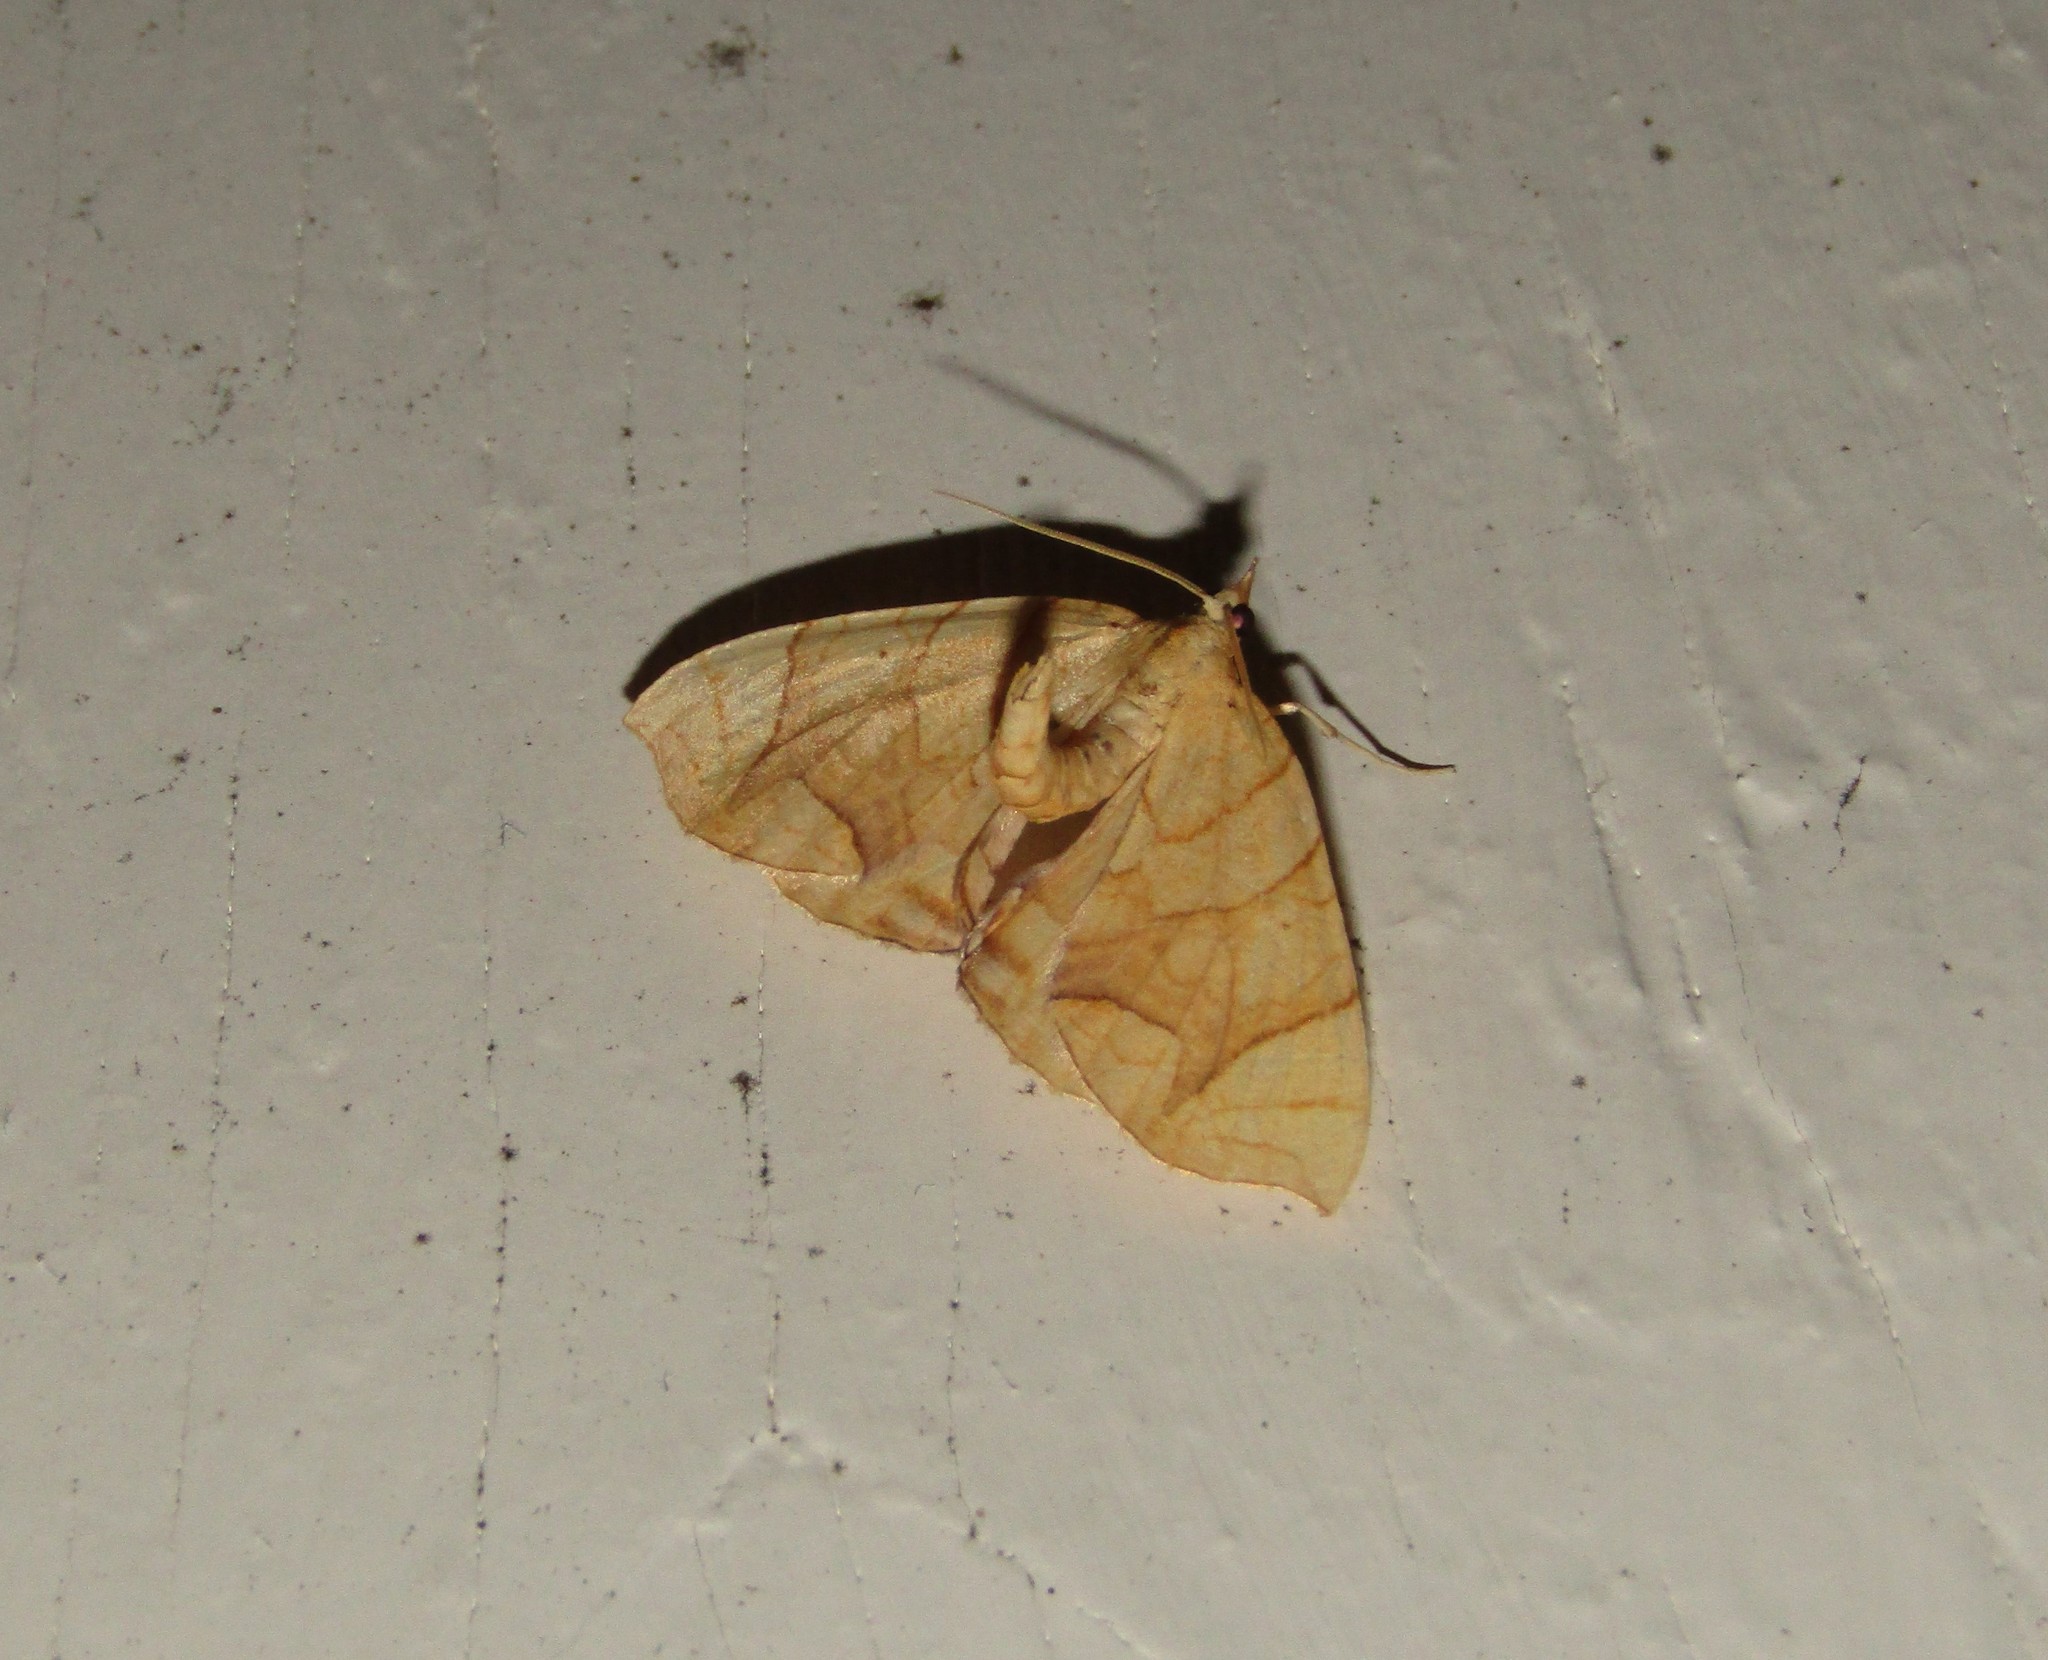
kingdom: Animalia
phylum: Arthropoda
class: Insecta
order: Lepidoptera
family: Geometridae
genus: Eulithis
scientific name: Eulithis
